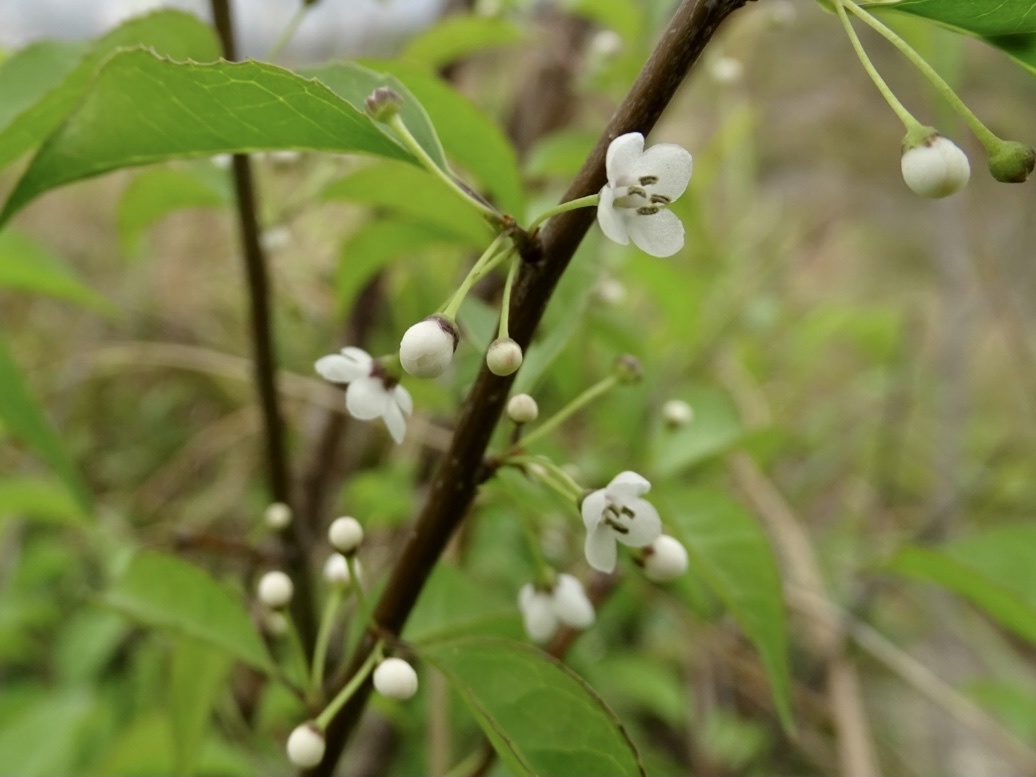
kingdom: Plantae
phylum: Tracheophyta
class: Magnoliopsida
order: Aquifoliales
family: Aquifoliaceae
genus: Ilex
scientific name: Ilex asprella
